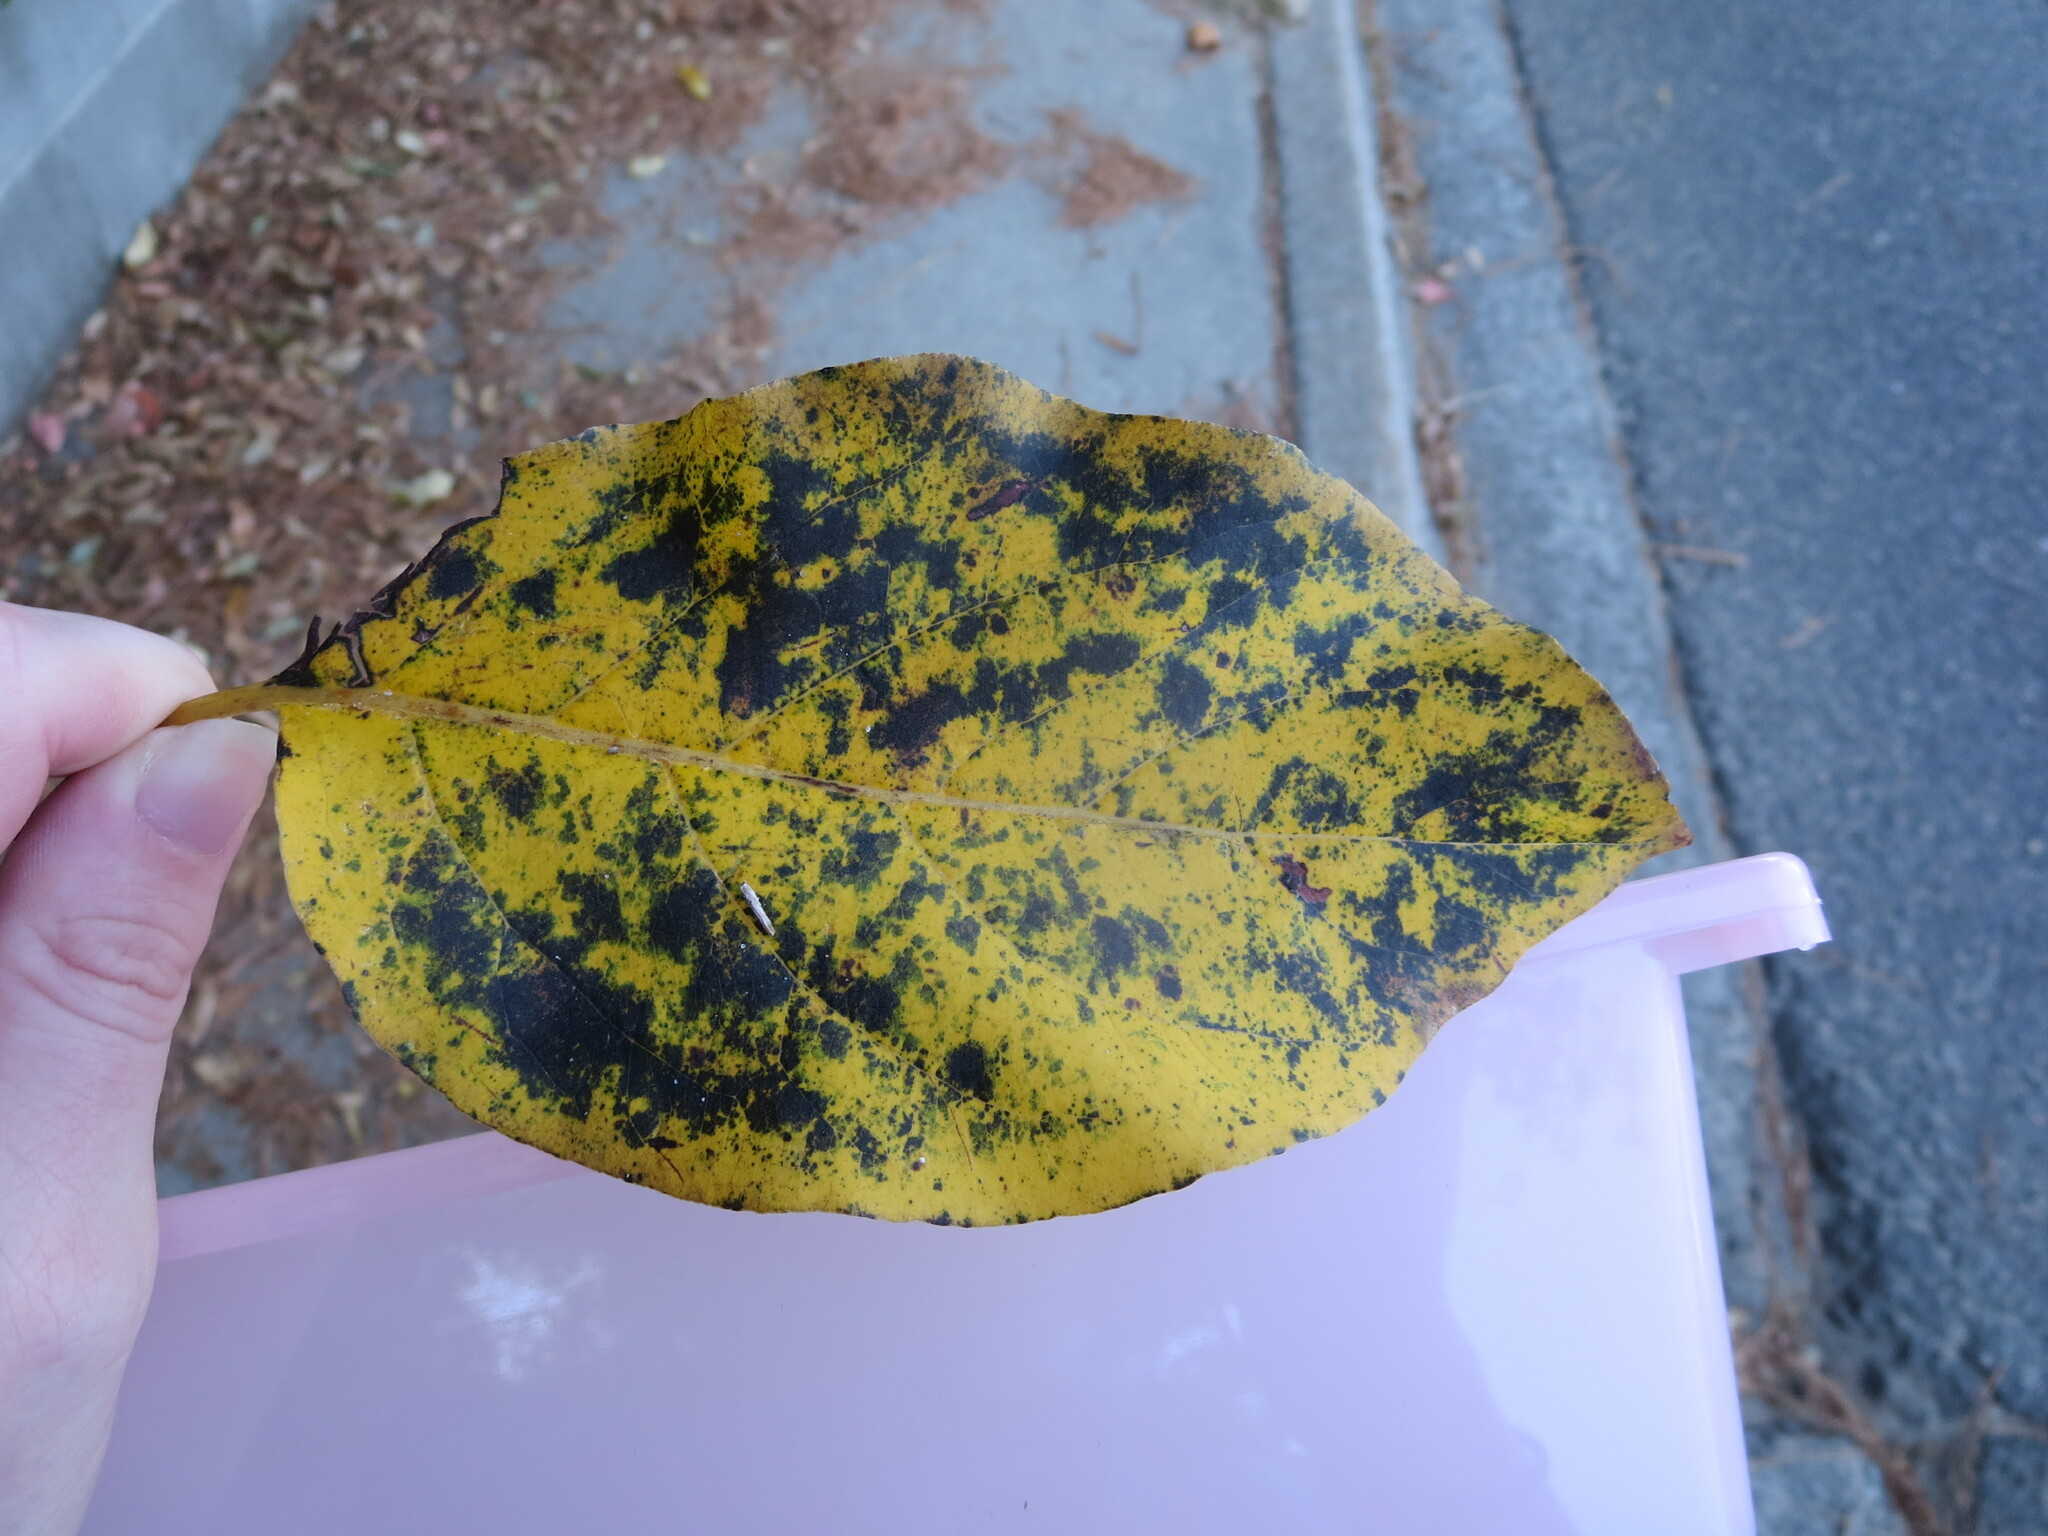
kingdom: Plantae
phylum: Tracheophyta
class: Magnoliopsida
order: Ericales
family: Ebenaceae
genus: Diospyros
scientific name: Diospyros virginiana
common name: Persimmon
